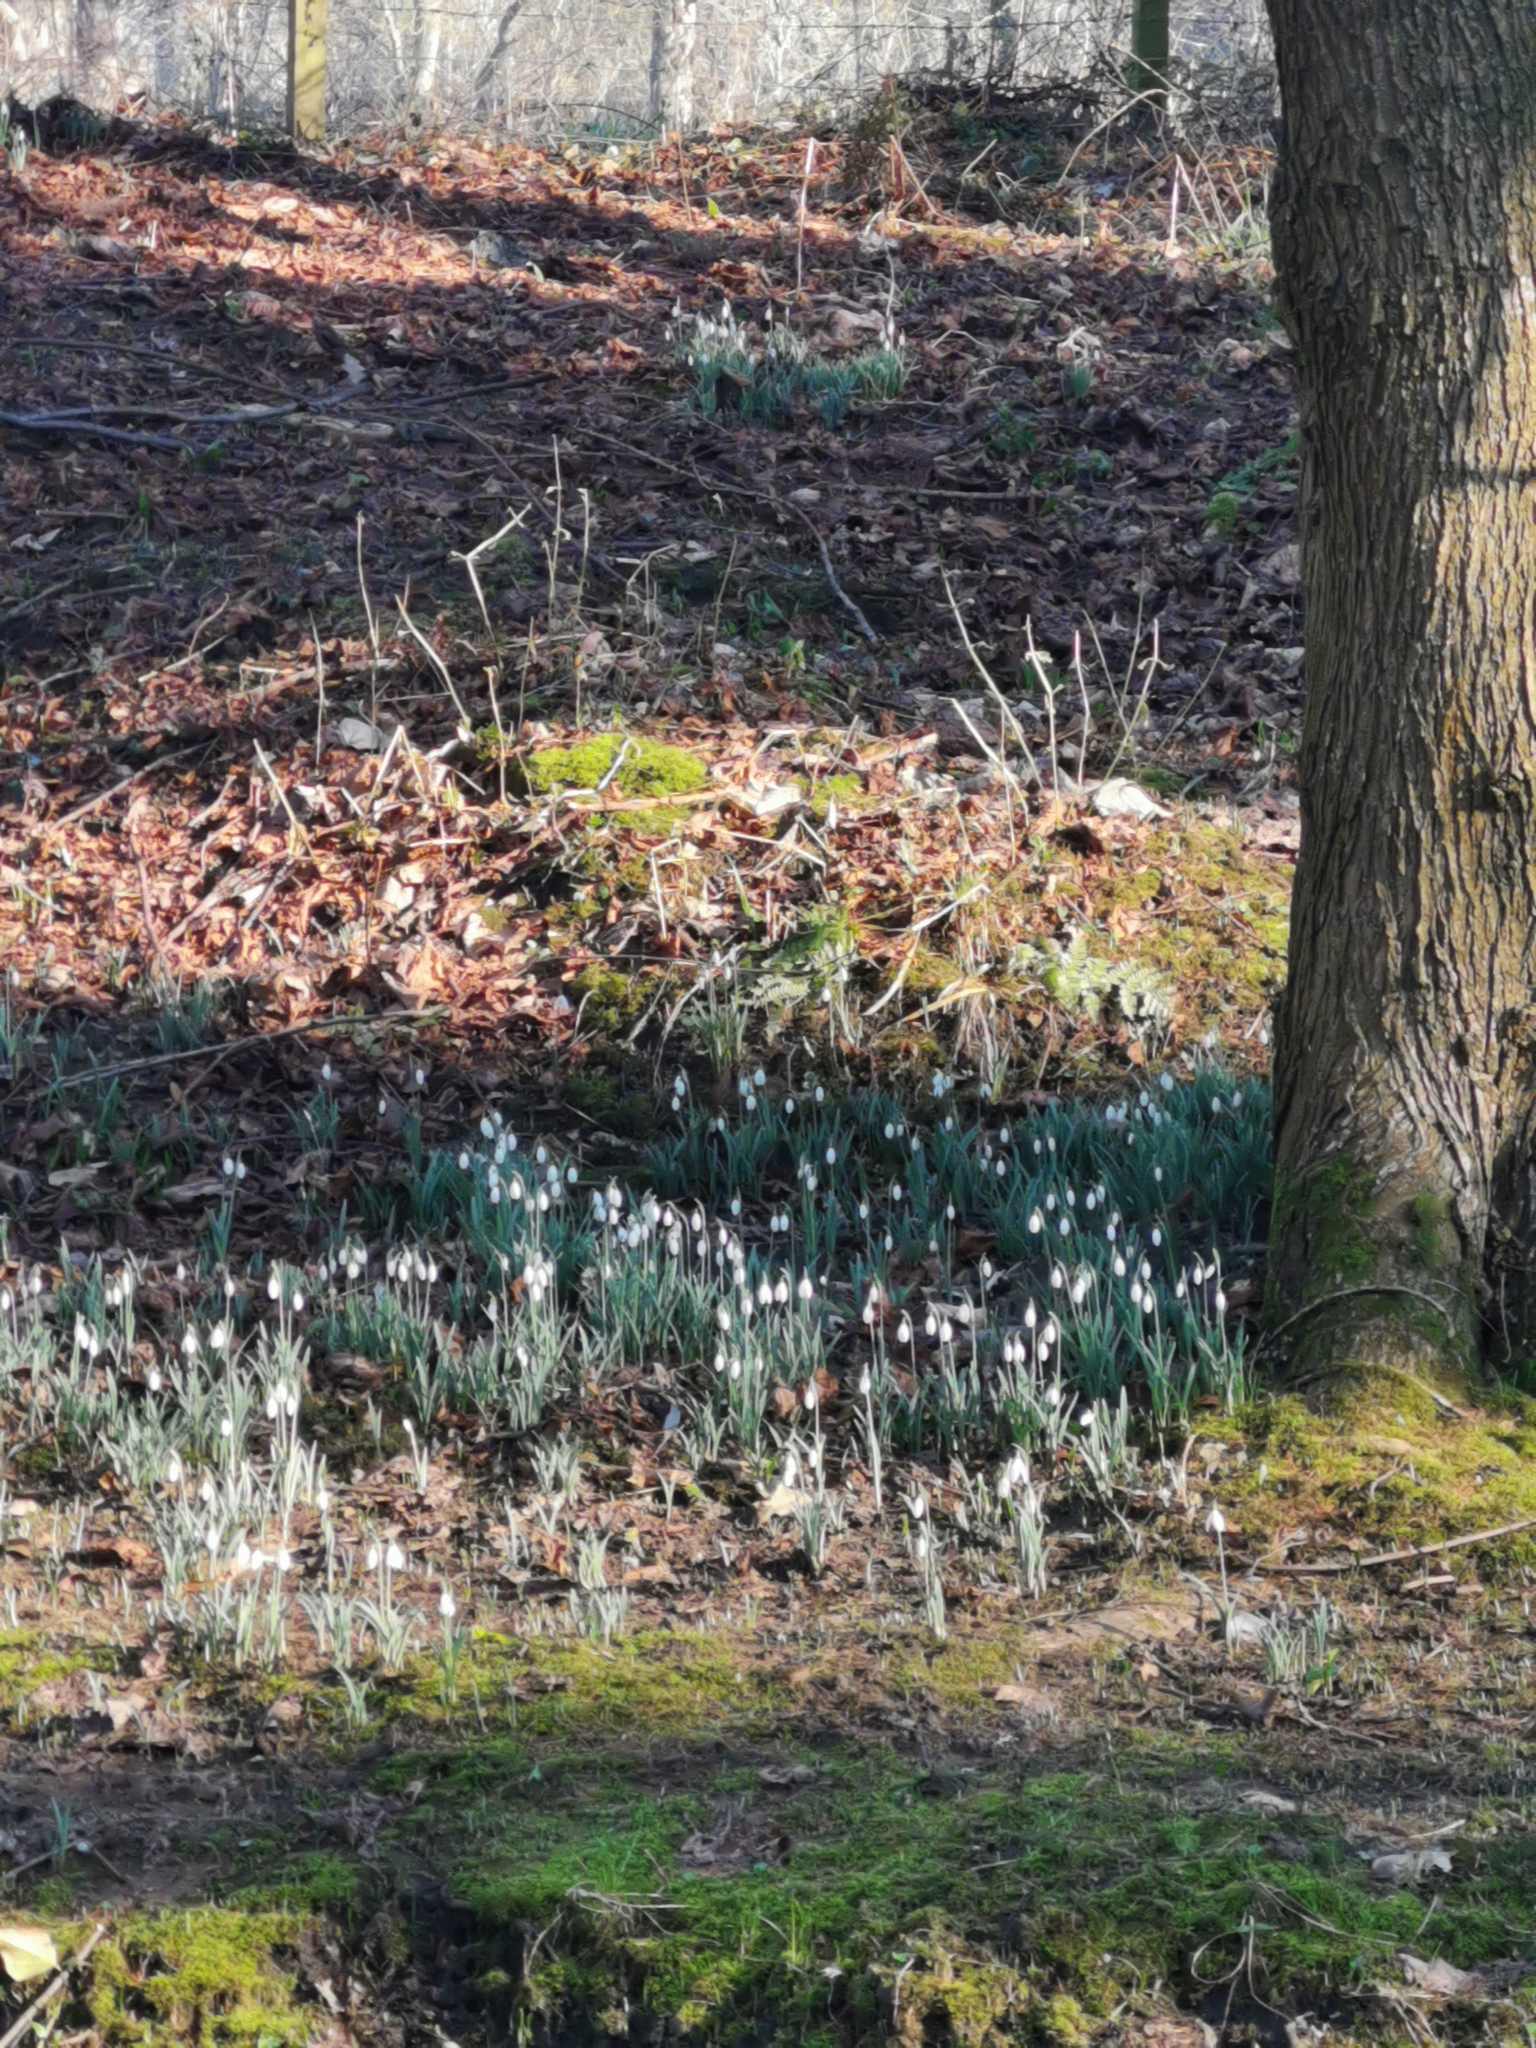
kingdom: Plantae
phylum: Tracheophyta
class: Liliopsida
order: Asparagales
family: Amaryllidaceae
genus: Galanthus
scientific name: Galanthus nivalis
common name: Snowdrop
